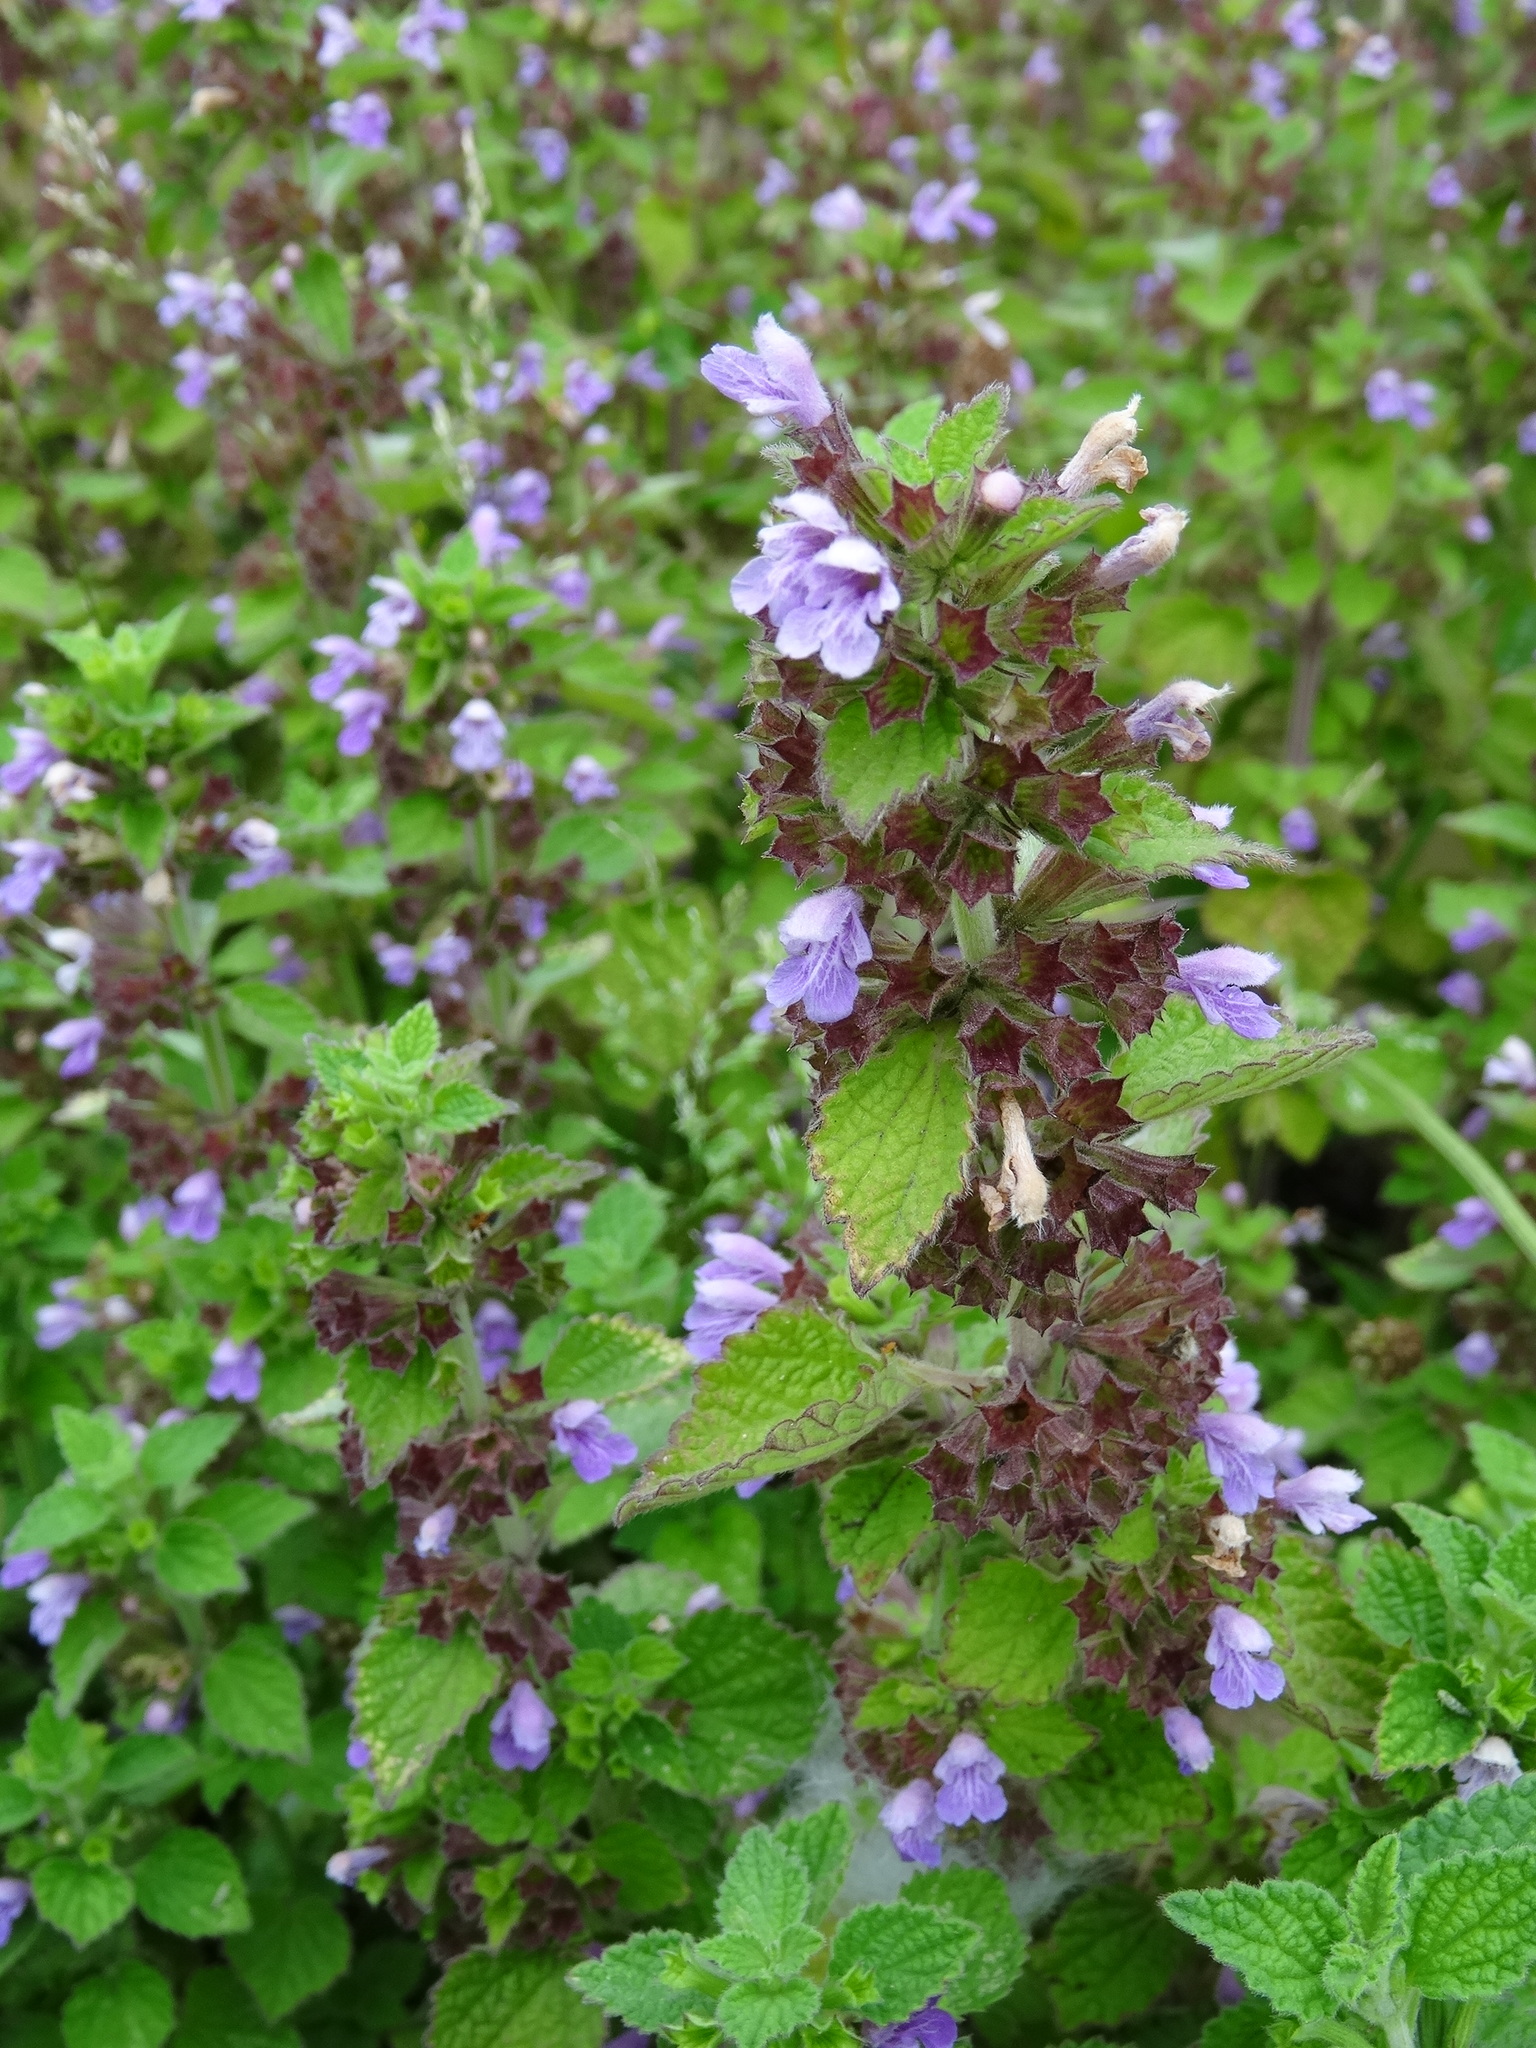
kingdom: Plantae
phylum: Tracheophyta
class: Magnoliopsida
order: Lamiales
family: Lamiaceae
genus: Ballota
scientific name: Ballota nigra
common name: Black horehound
